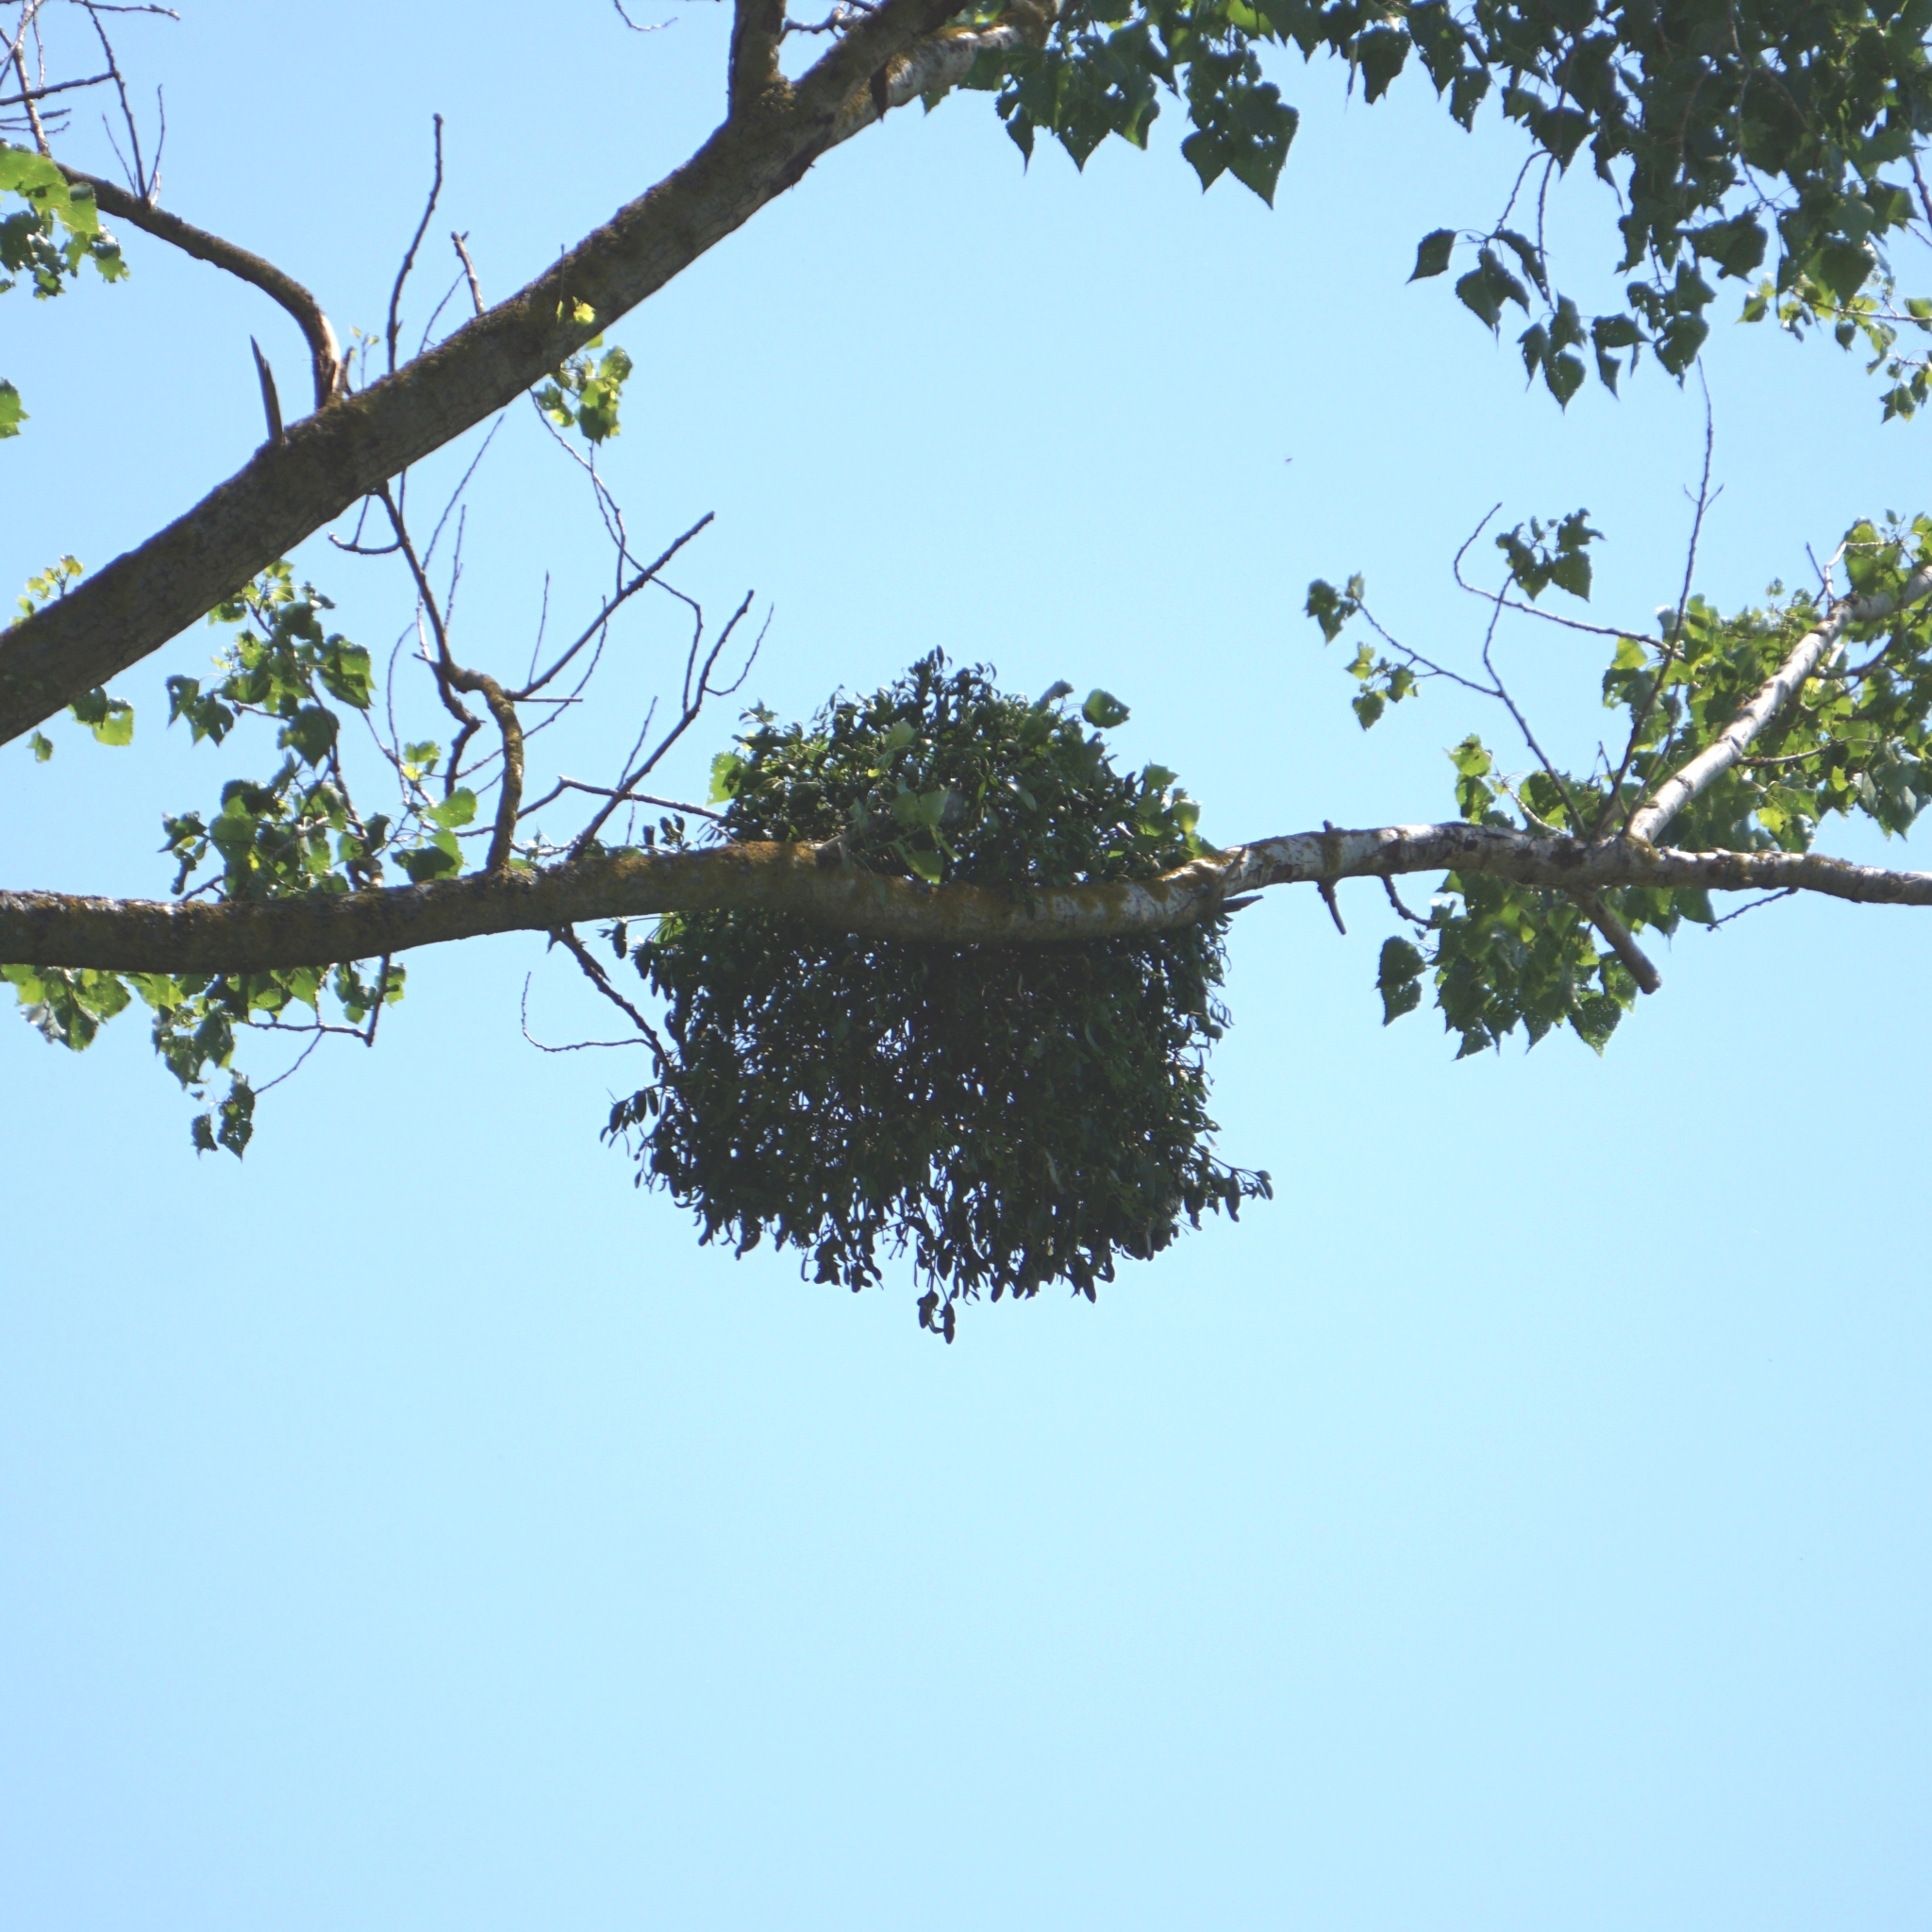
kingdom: Plantae
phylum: Tracheophyta
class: Magnoliopsida
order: Santalales
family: Viscaceae
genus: Viscum
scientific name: Viscum album
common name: Mistletoe
